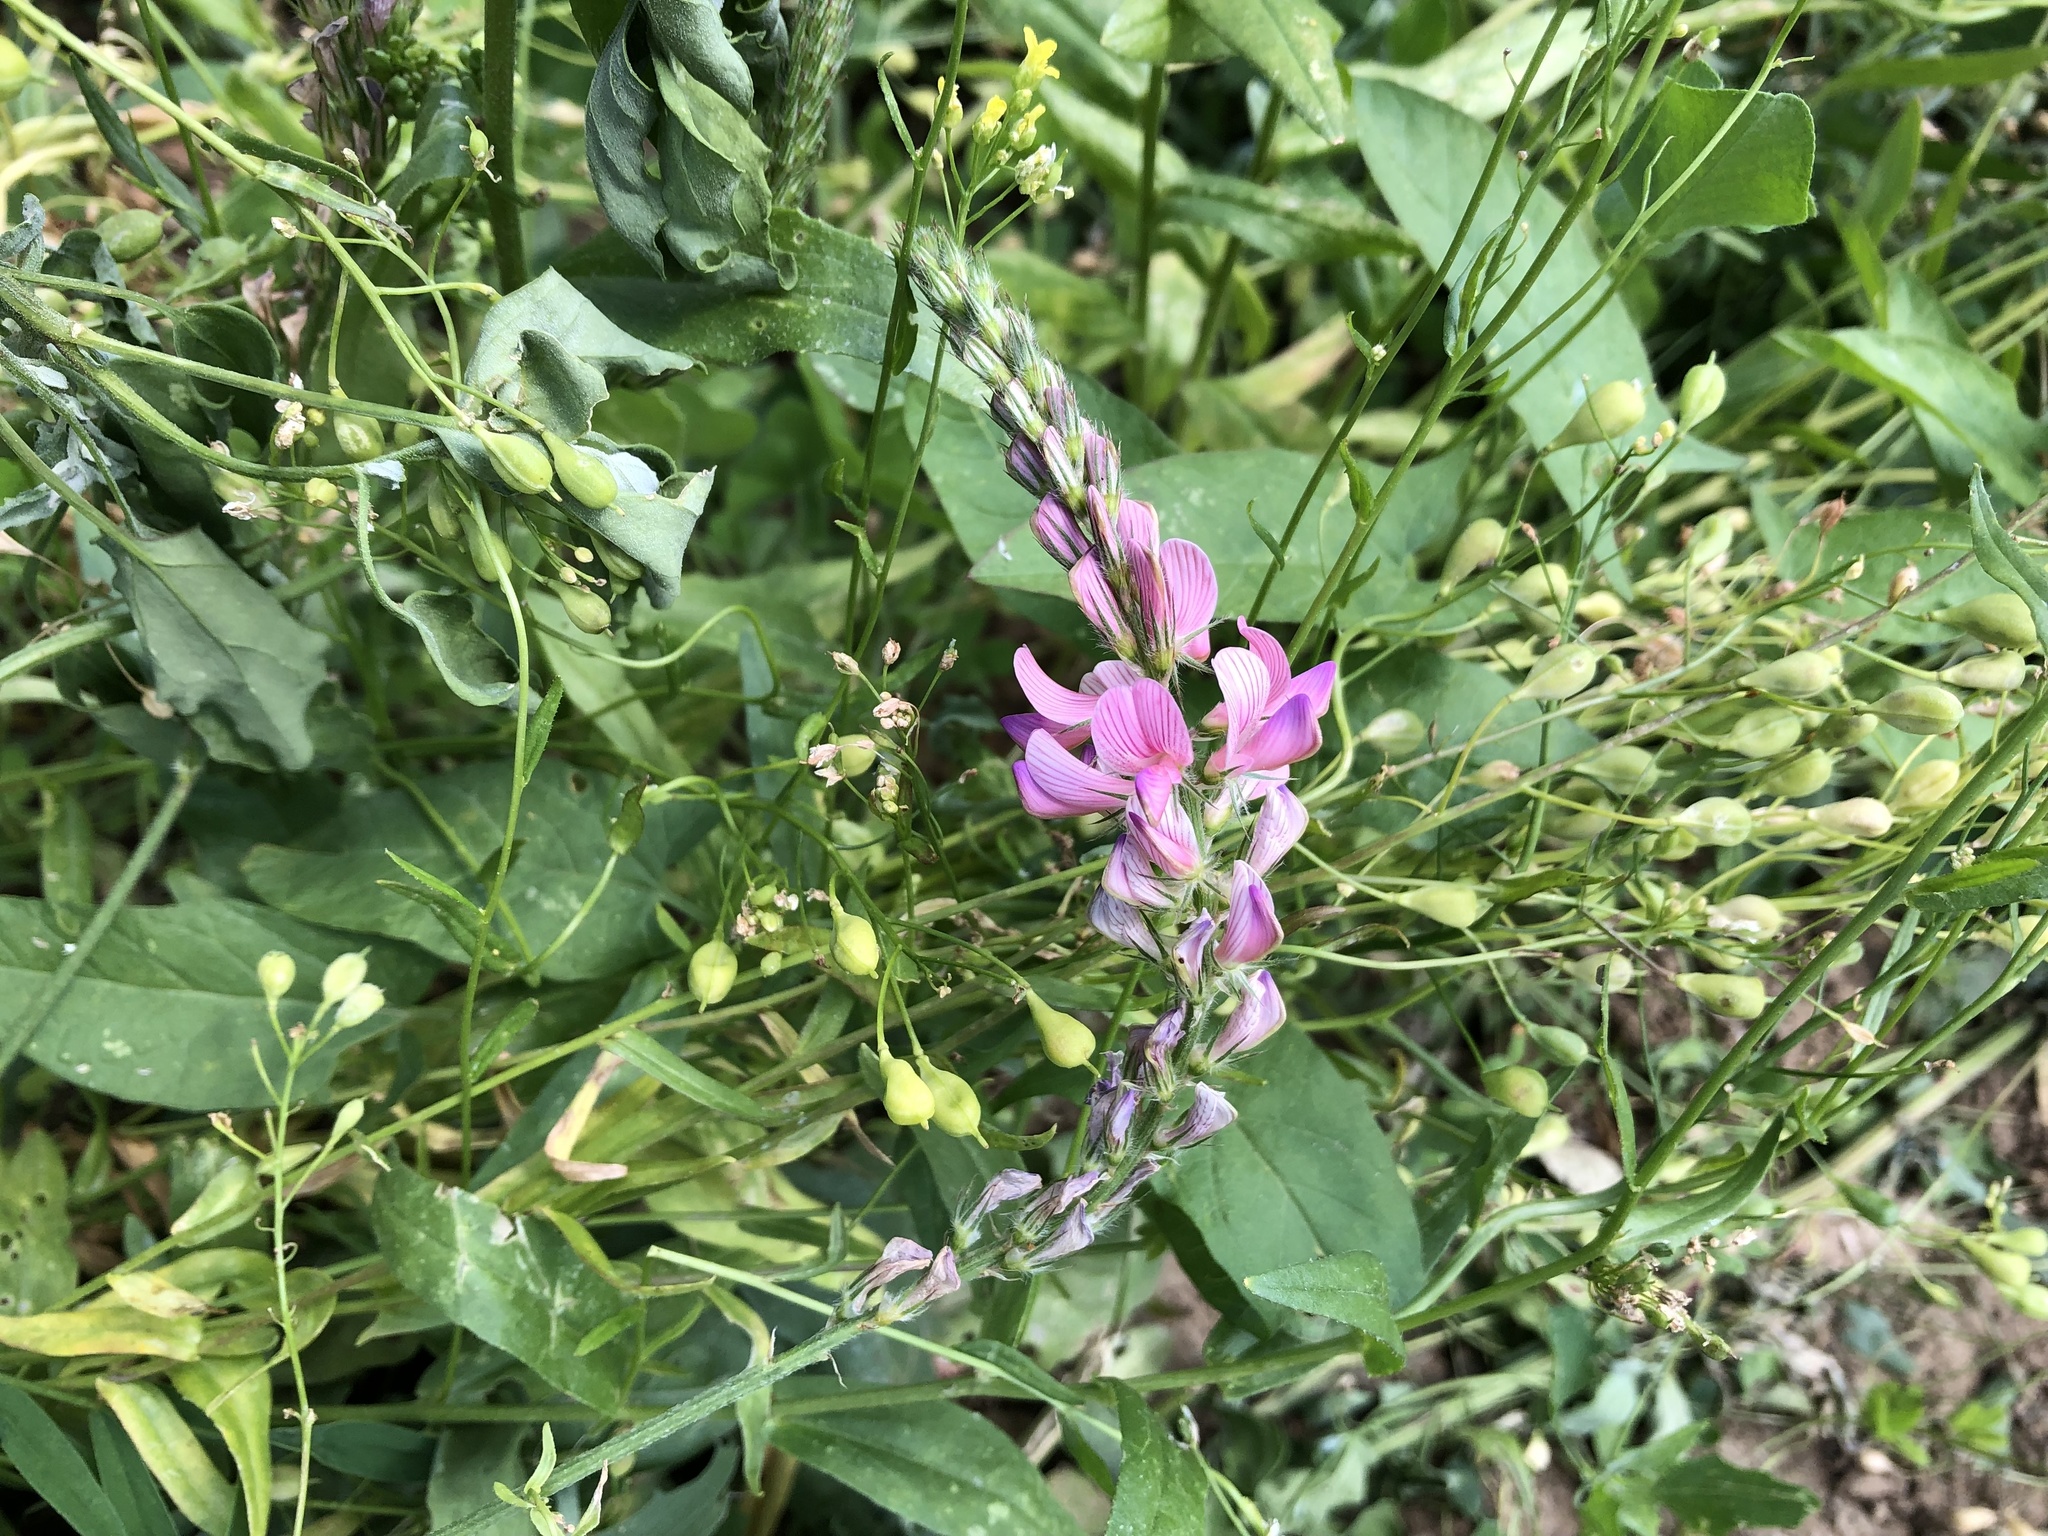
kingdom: Plantae
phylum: Tracheophyta
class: Magnoliopsida
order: Fabales
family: Fabaceae
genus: Onobrychis
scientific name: Onobrychis viciifolia
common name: Sainfoin
